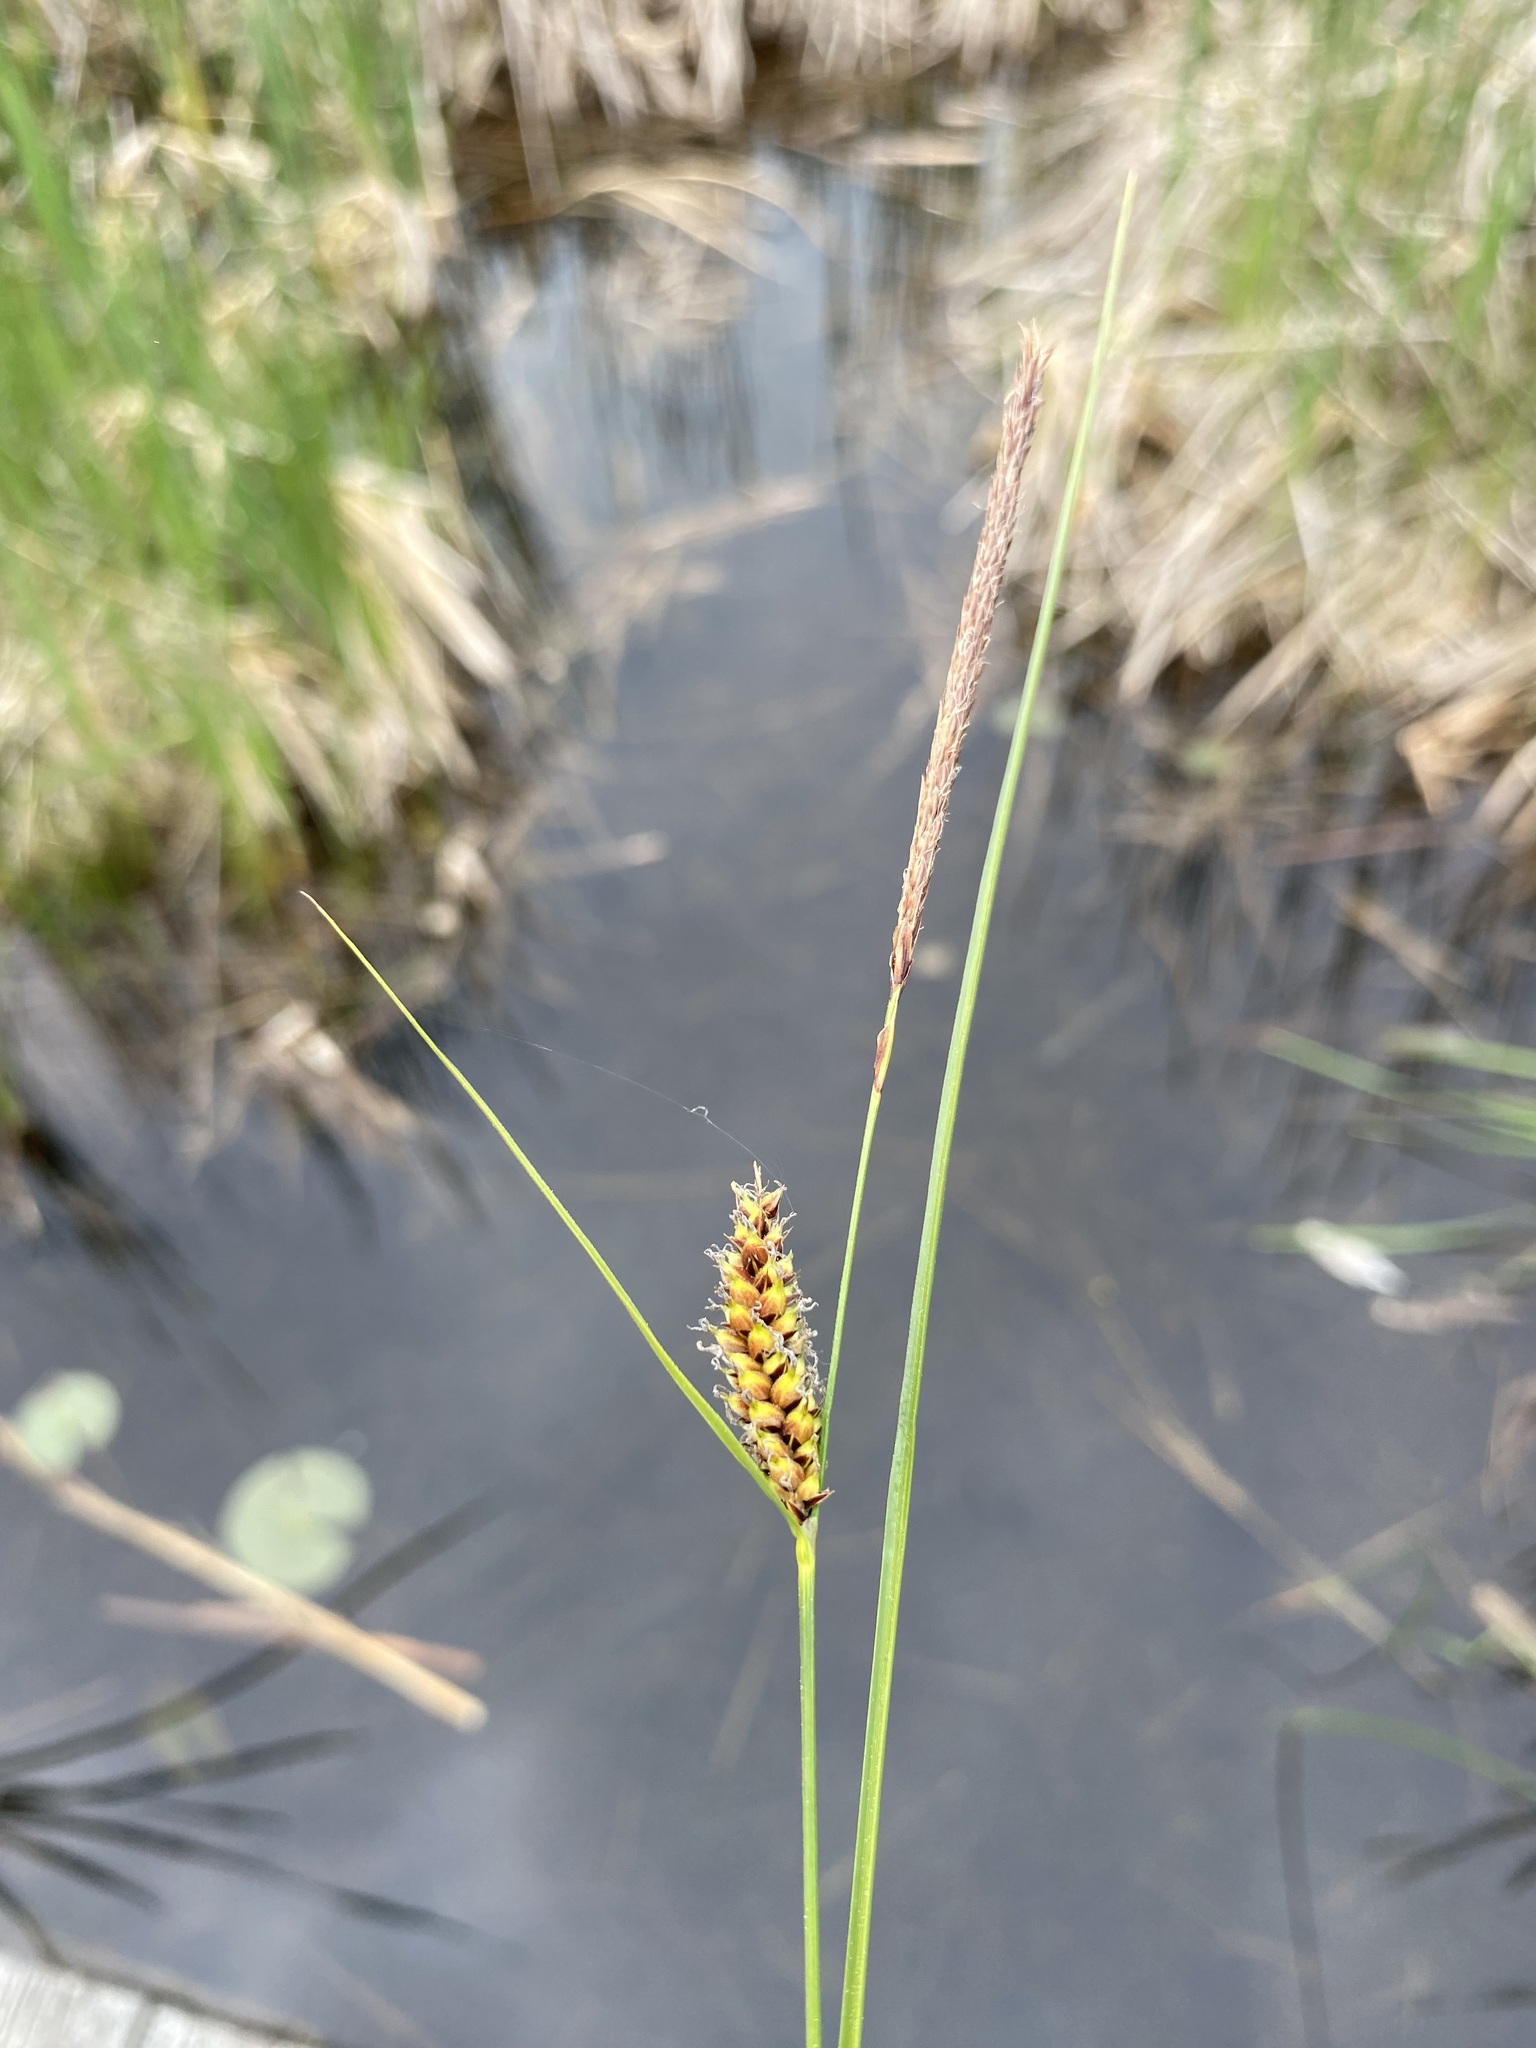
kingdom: Plantae
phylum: Tracheophyta
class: Liliopsida
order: Poales
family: Cyperaceae
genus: Carex
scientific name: Carex lasiocarpa
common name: Slender sedge
